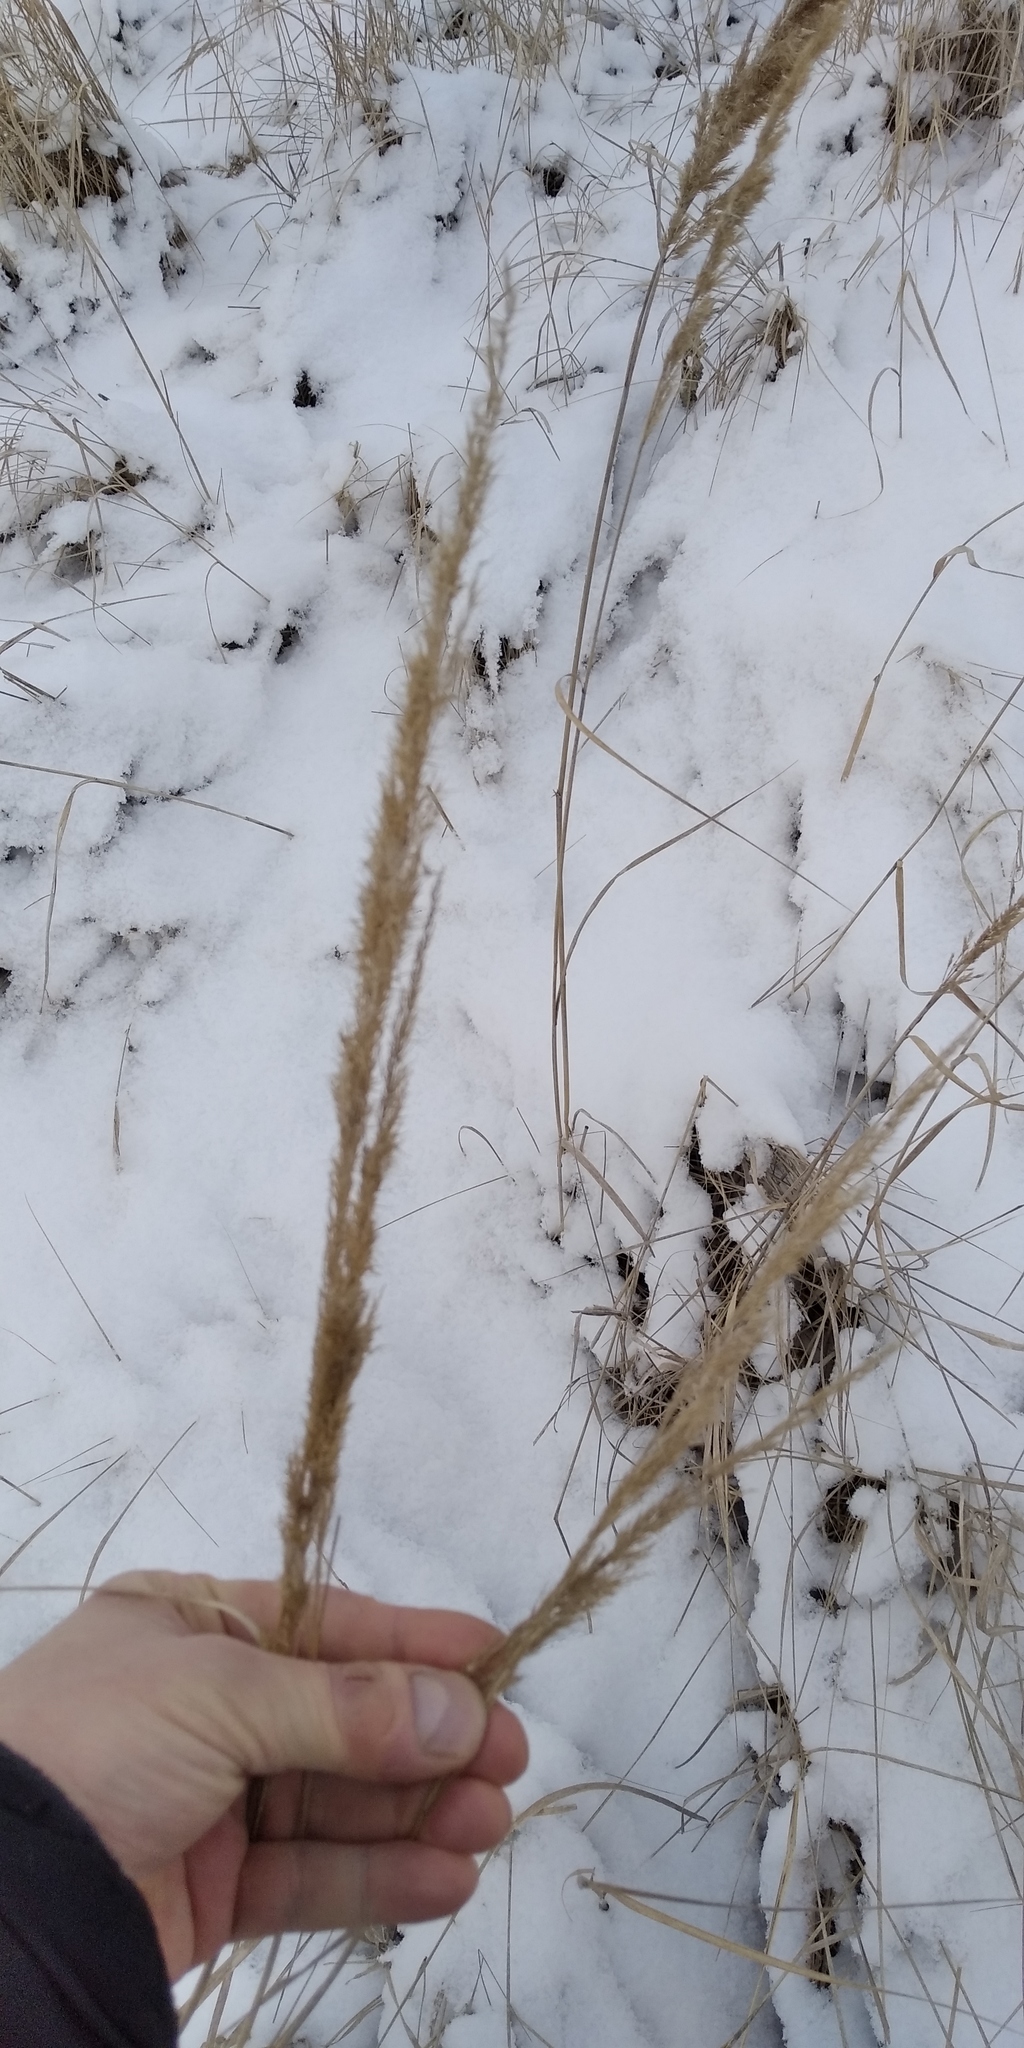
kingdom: Plantae
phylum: Tracheophyta
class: Liliopsida
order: Poales
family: Poaceae
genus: Calamagrostis
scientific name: Calamagrostis epigejos
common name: Wood small-reed
